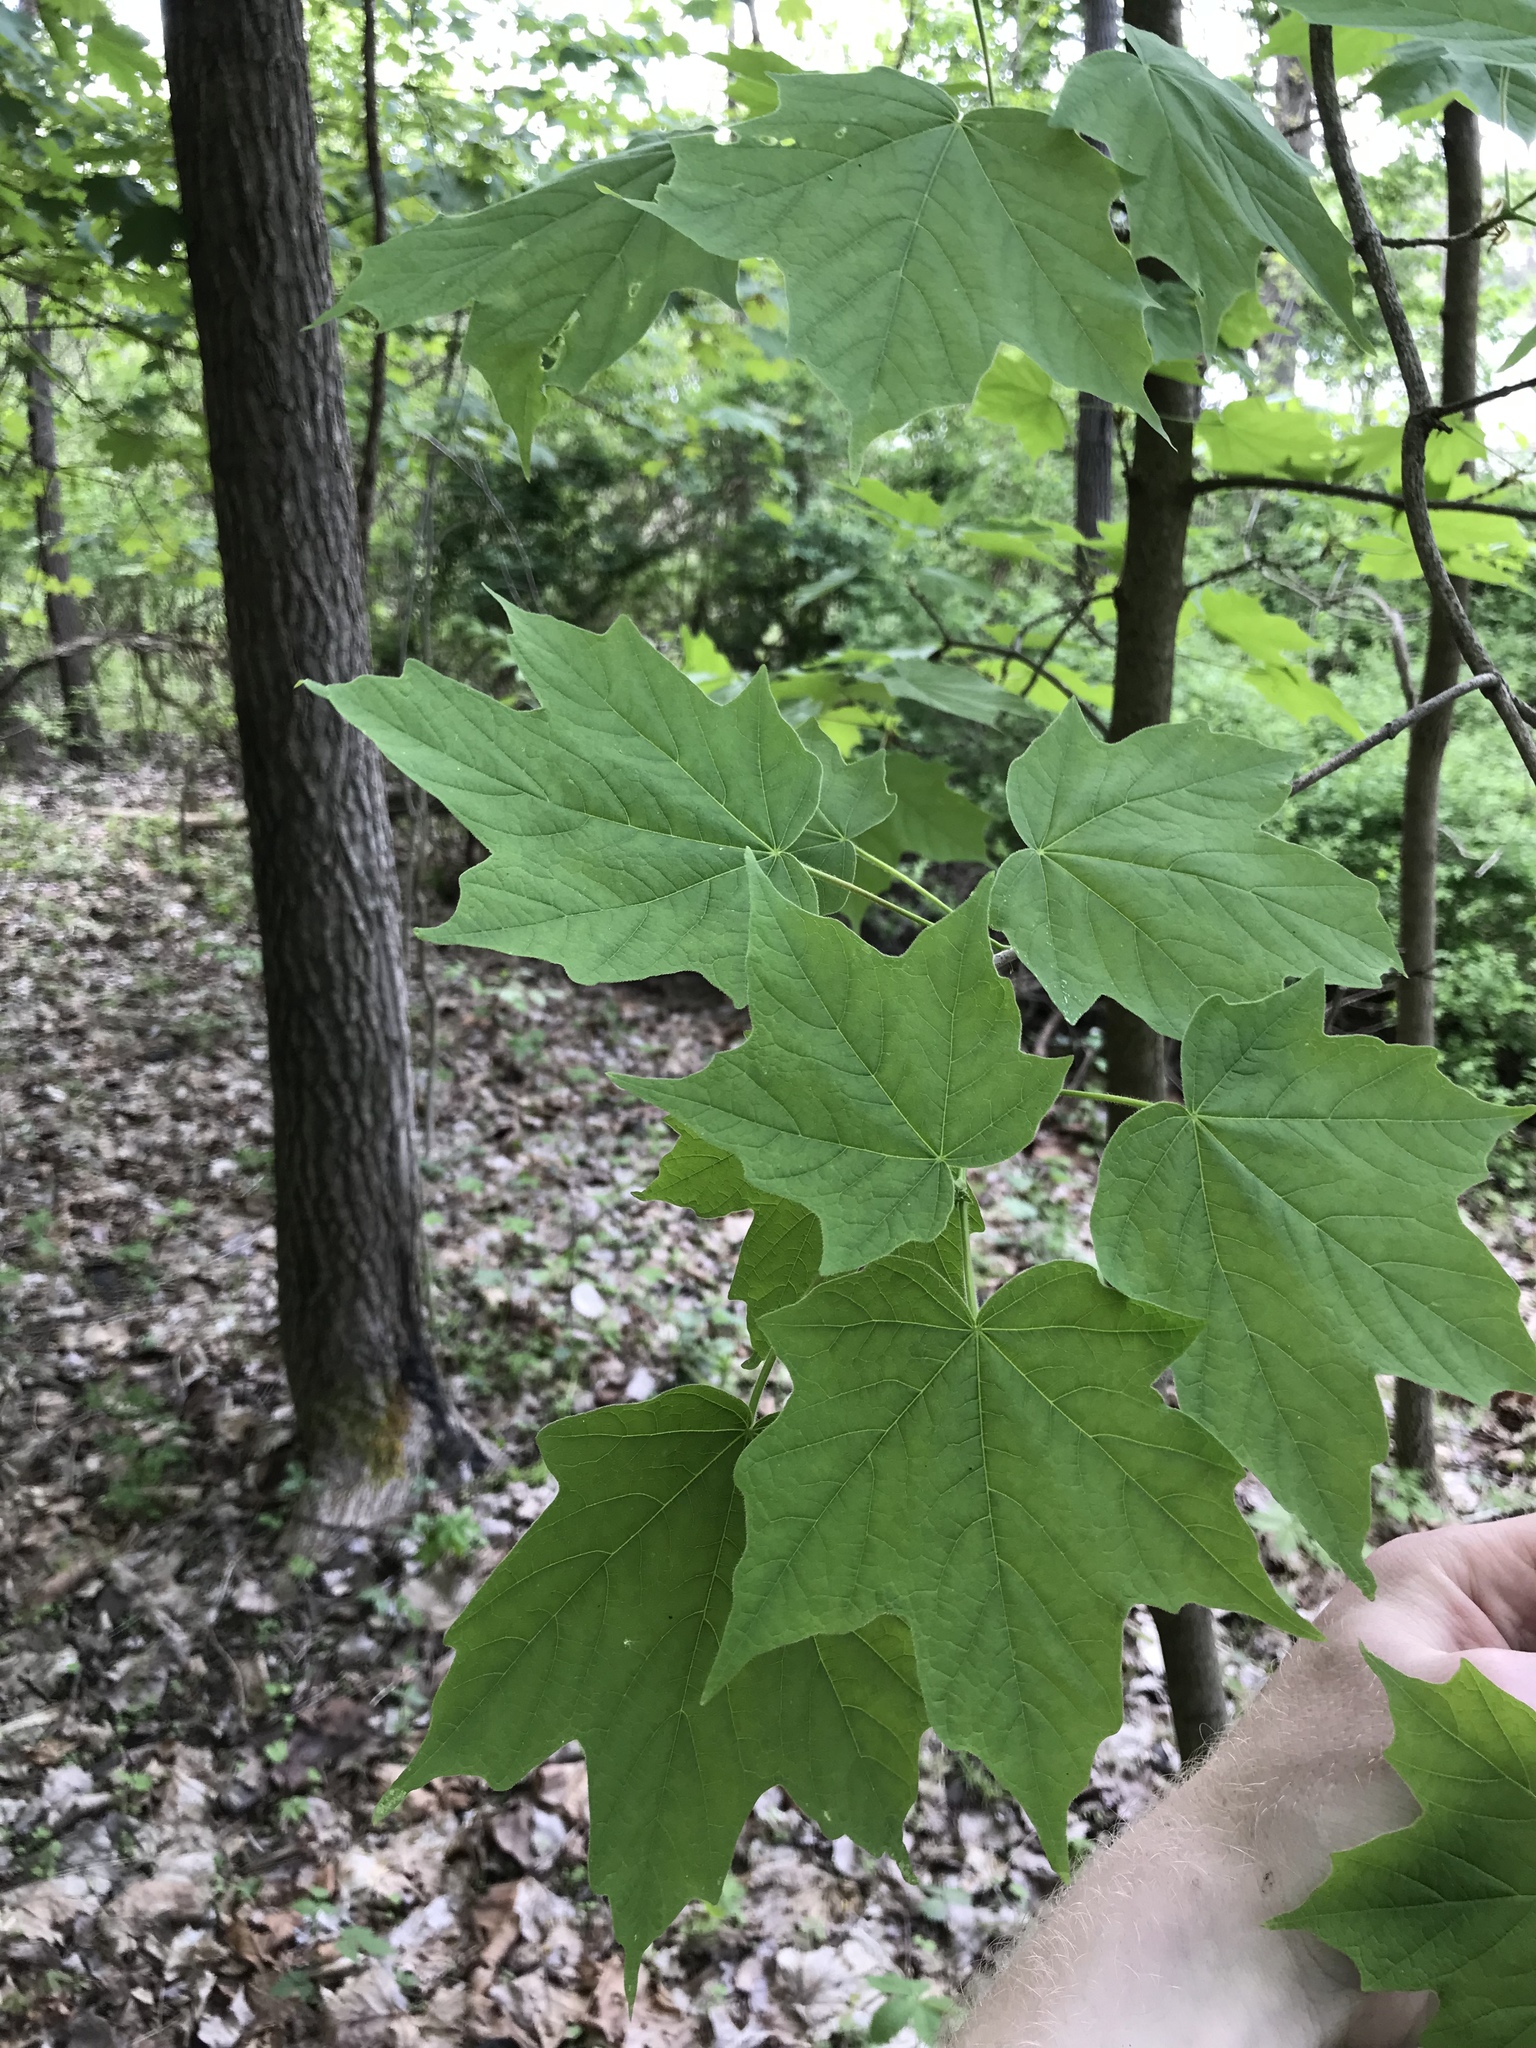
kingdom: Plantae
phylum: Tracheophyta
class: Magnoliopsida
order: Sapindales
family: Sapindaceae
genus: Acer
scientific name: Acer nigrum
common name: Black maple
